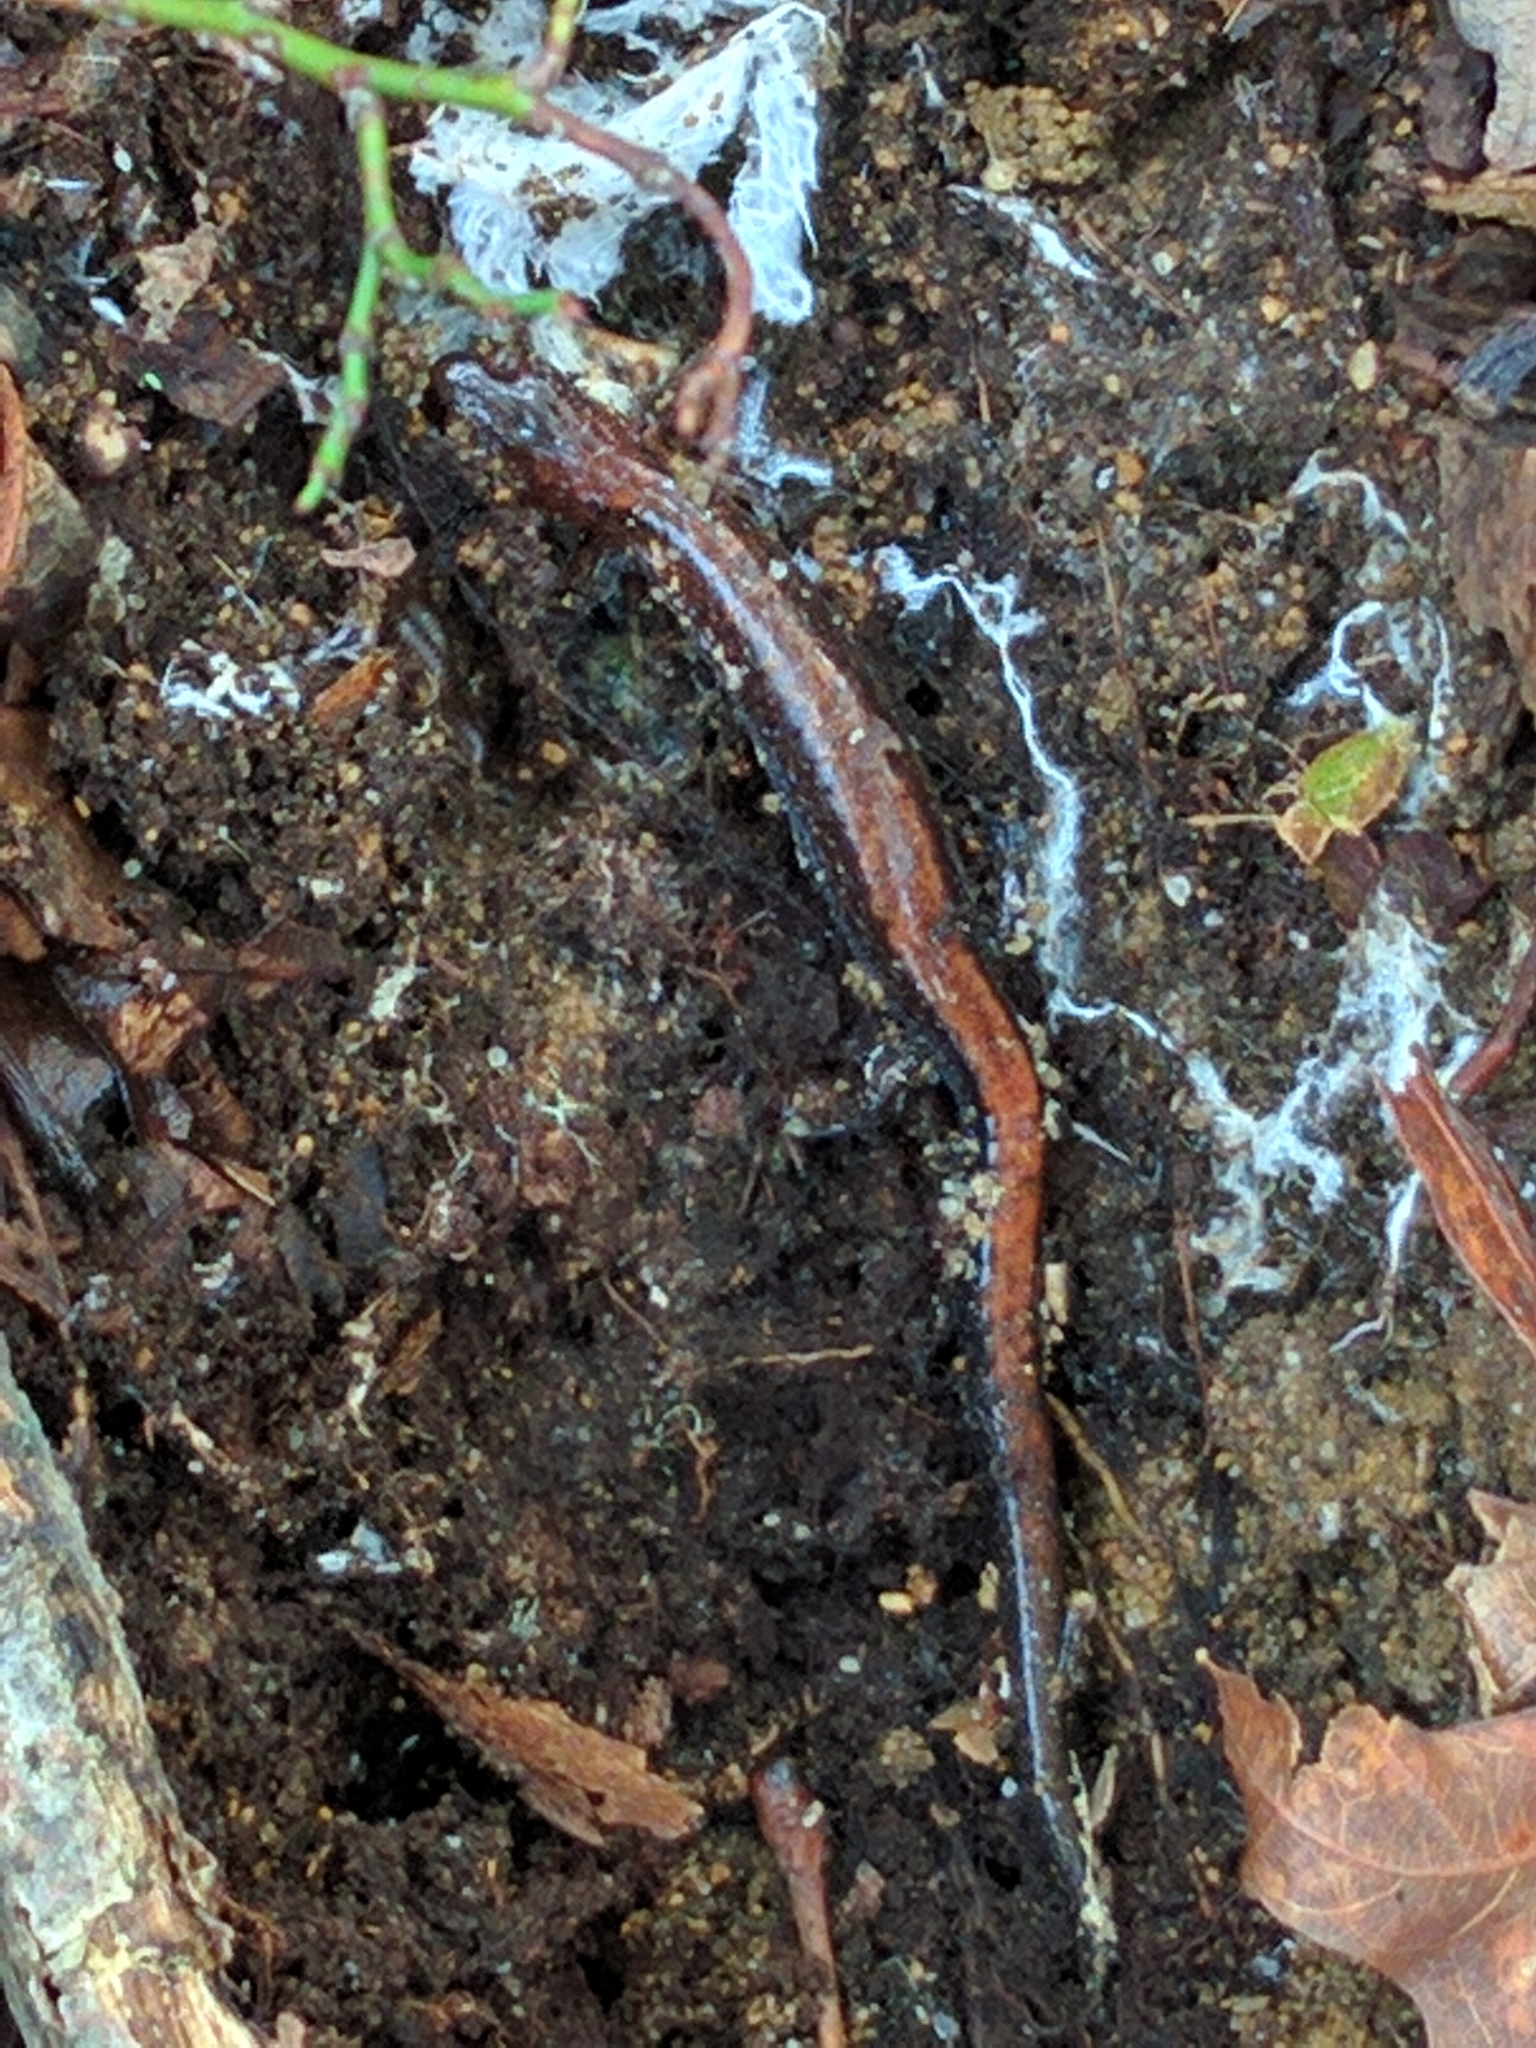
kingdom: Animalia
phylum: Chordata
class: Amphibia
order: Caudata
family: Plethodontidae
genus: Plethodon
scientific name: Plethodon cinereus
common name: Redback salamander
